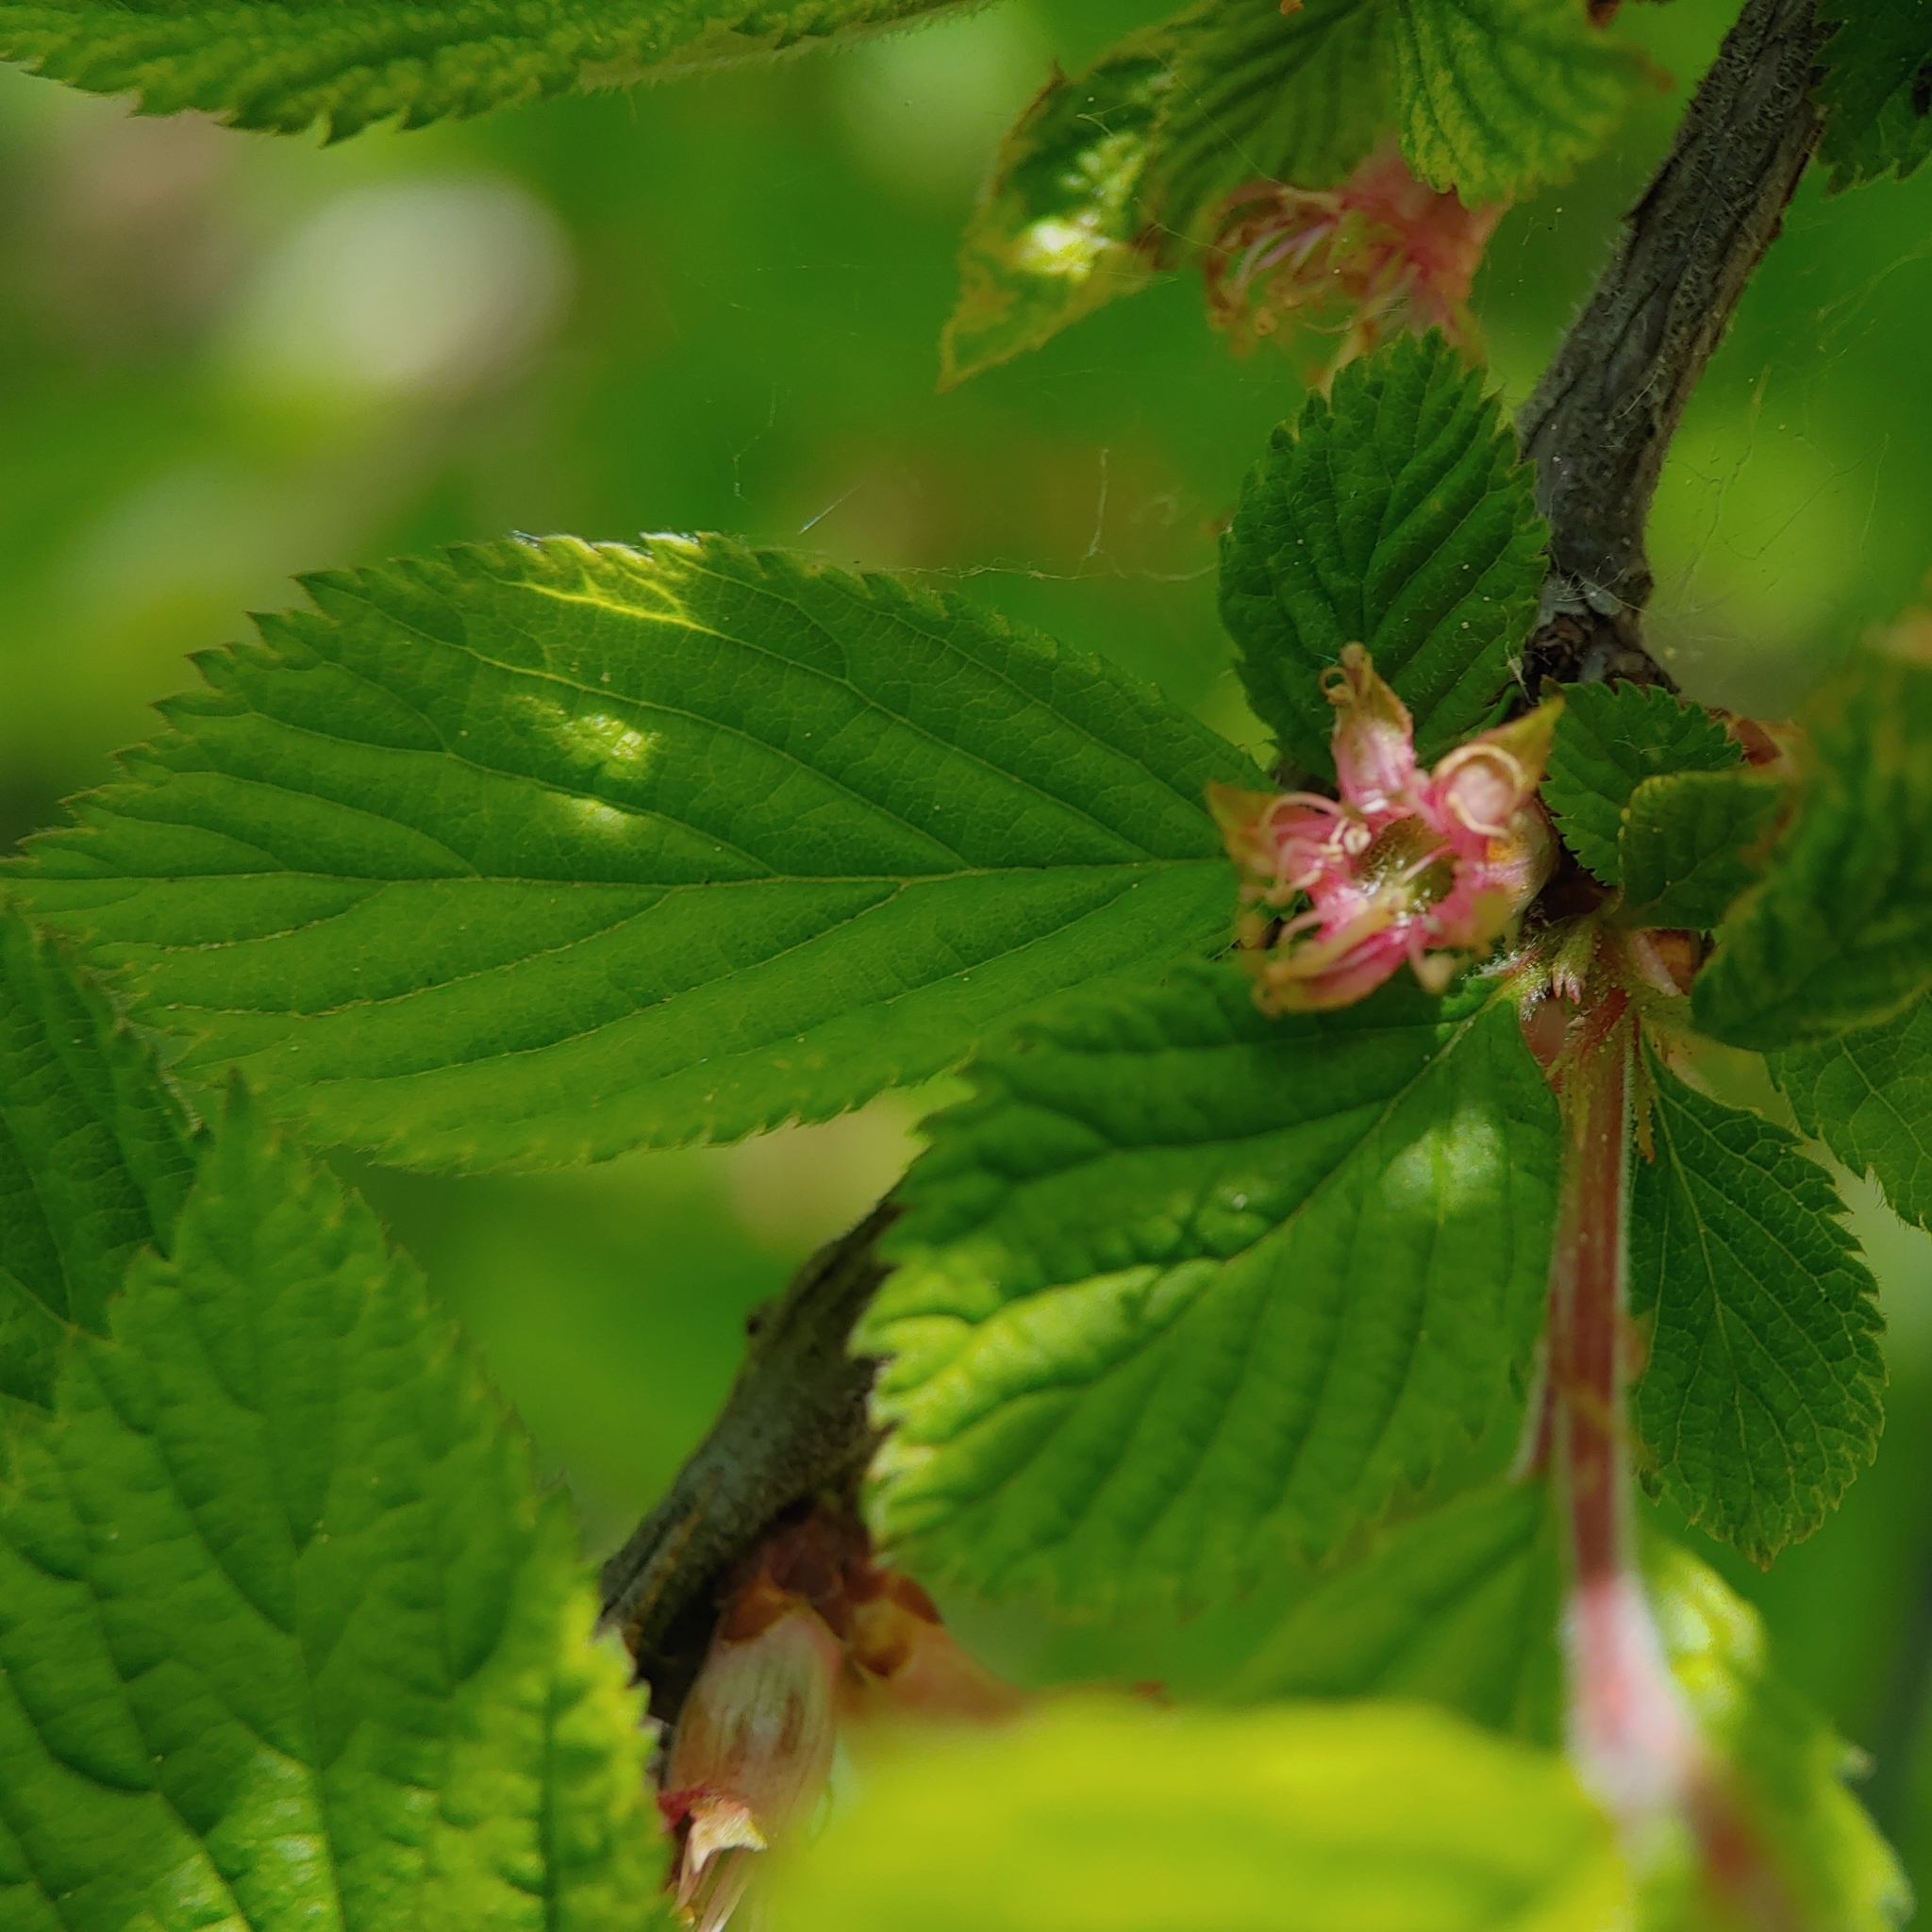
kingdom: Plantae
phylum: Tracheophyta
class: Magnoliopsida
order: Rosales
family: Rosaceae
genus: Prunus
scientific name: Prunus tomentosa
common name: Nanking cherry
